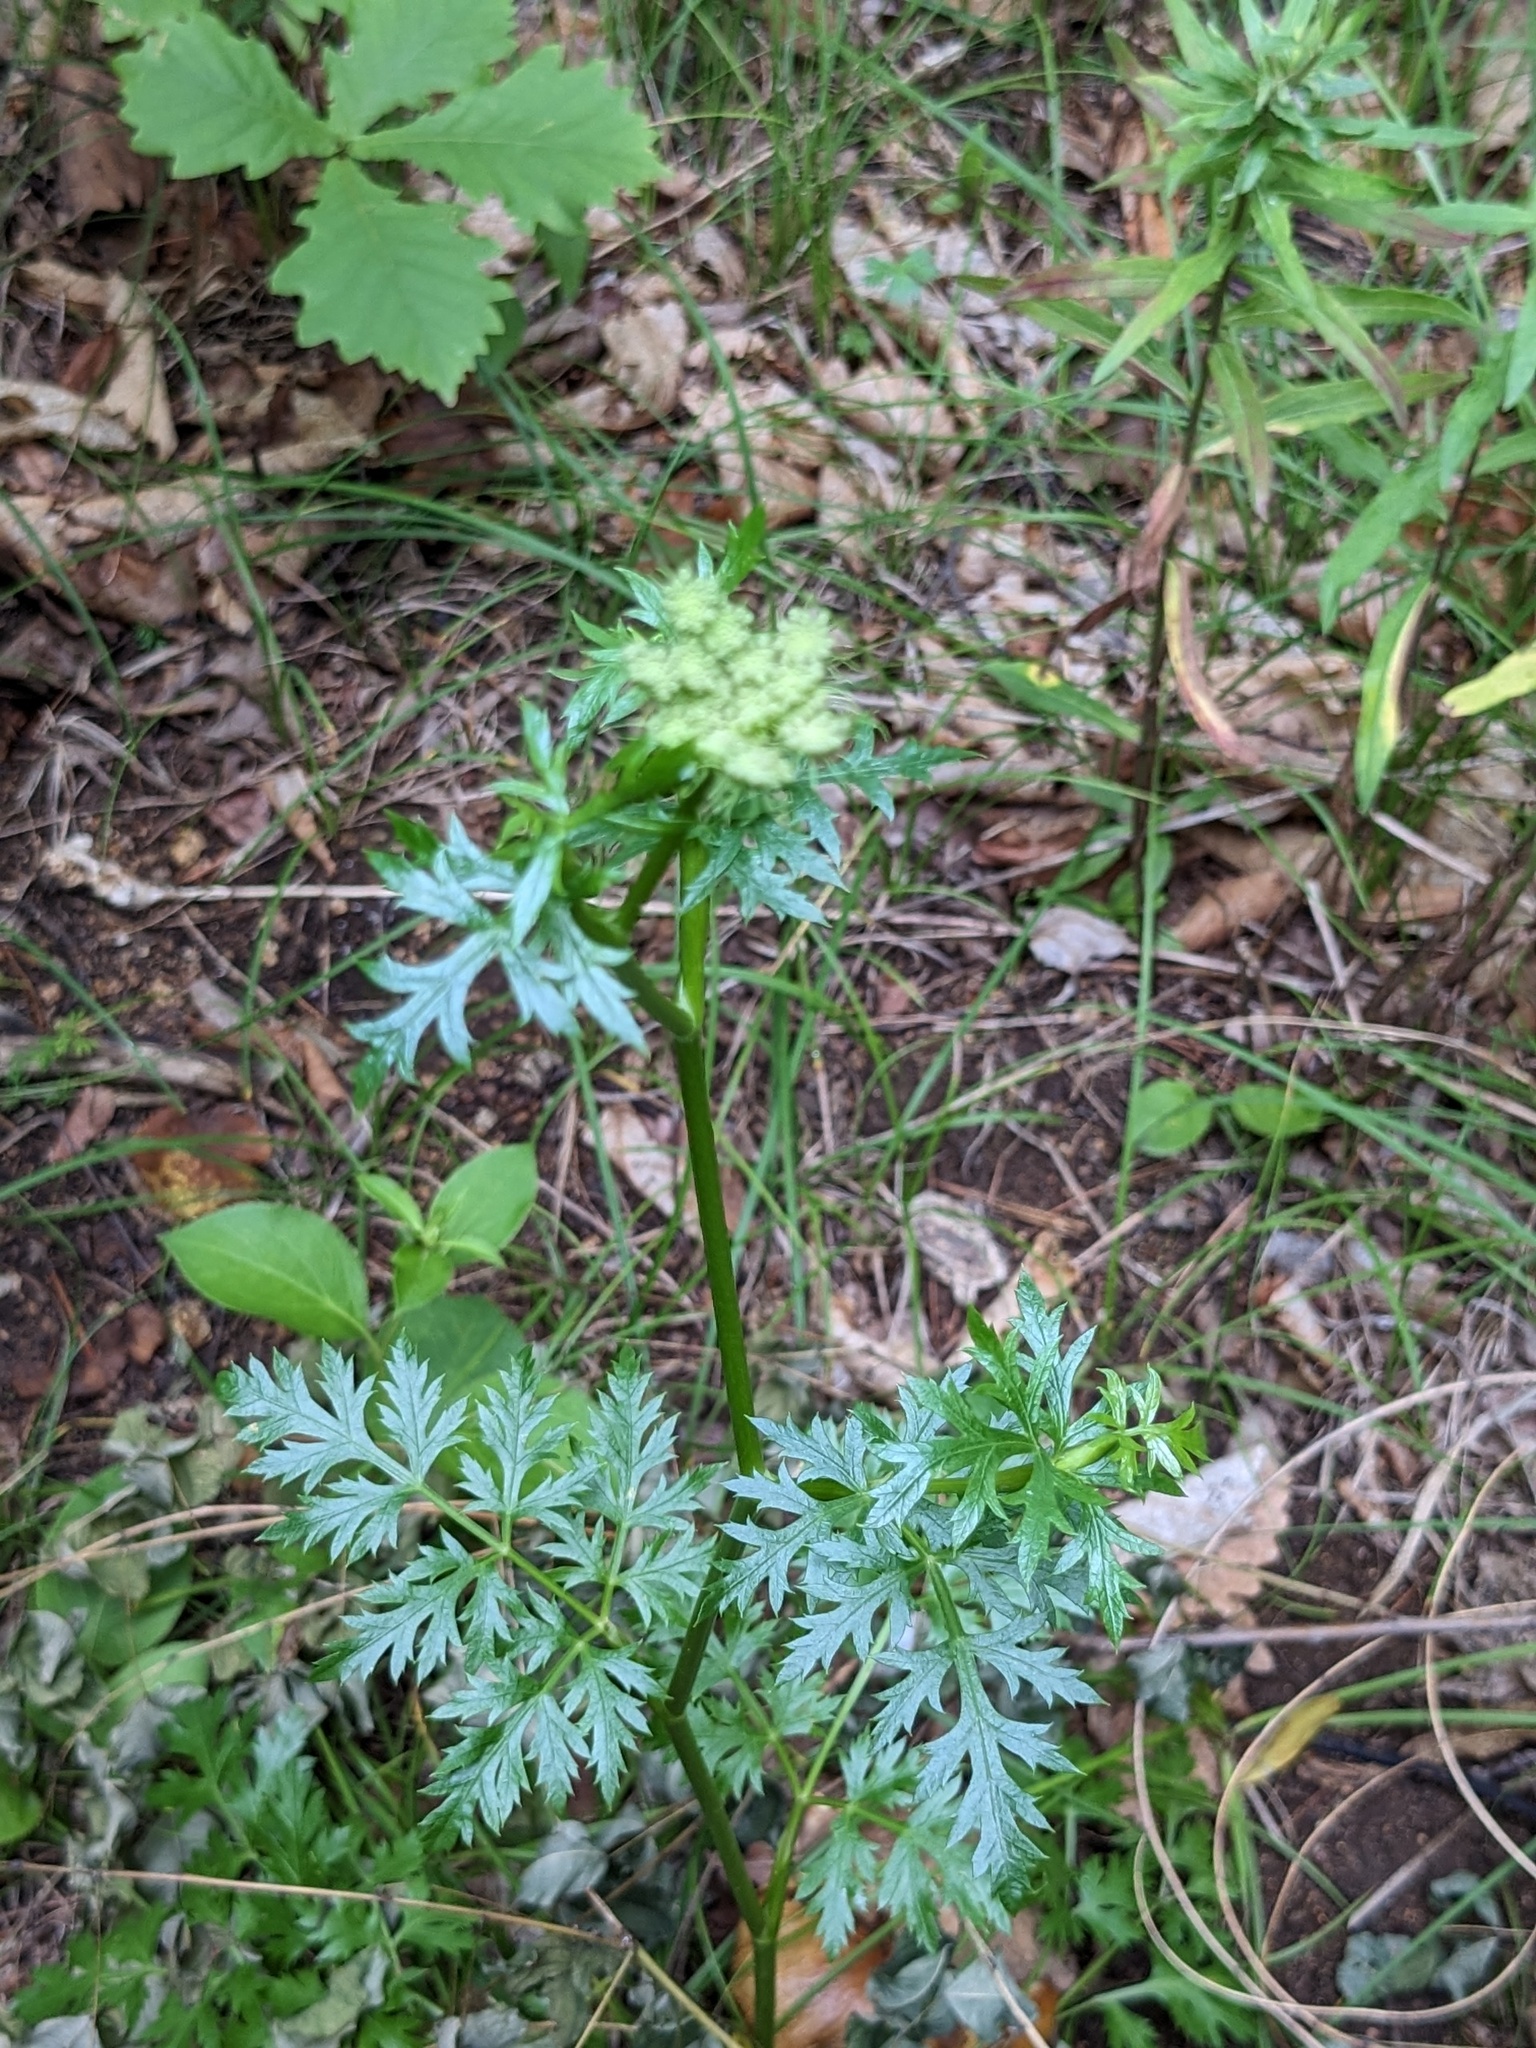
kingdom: Plantae
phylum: Tracheophyta
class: Magnoliopsida
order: Apiales
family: Apiaceae
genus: Kitagawia
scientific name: Kitagawia terebinthacea
